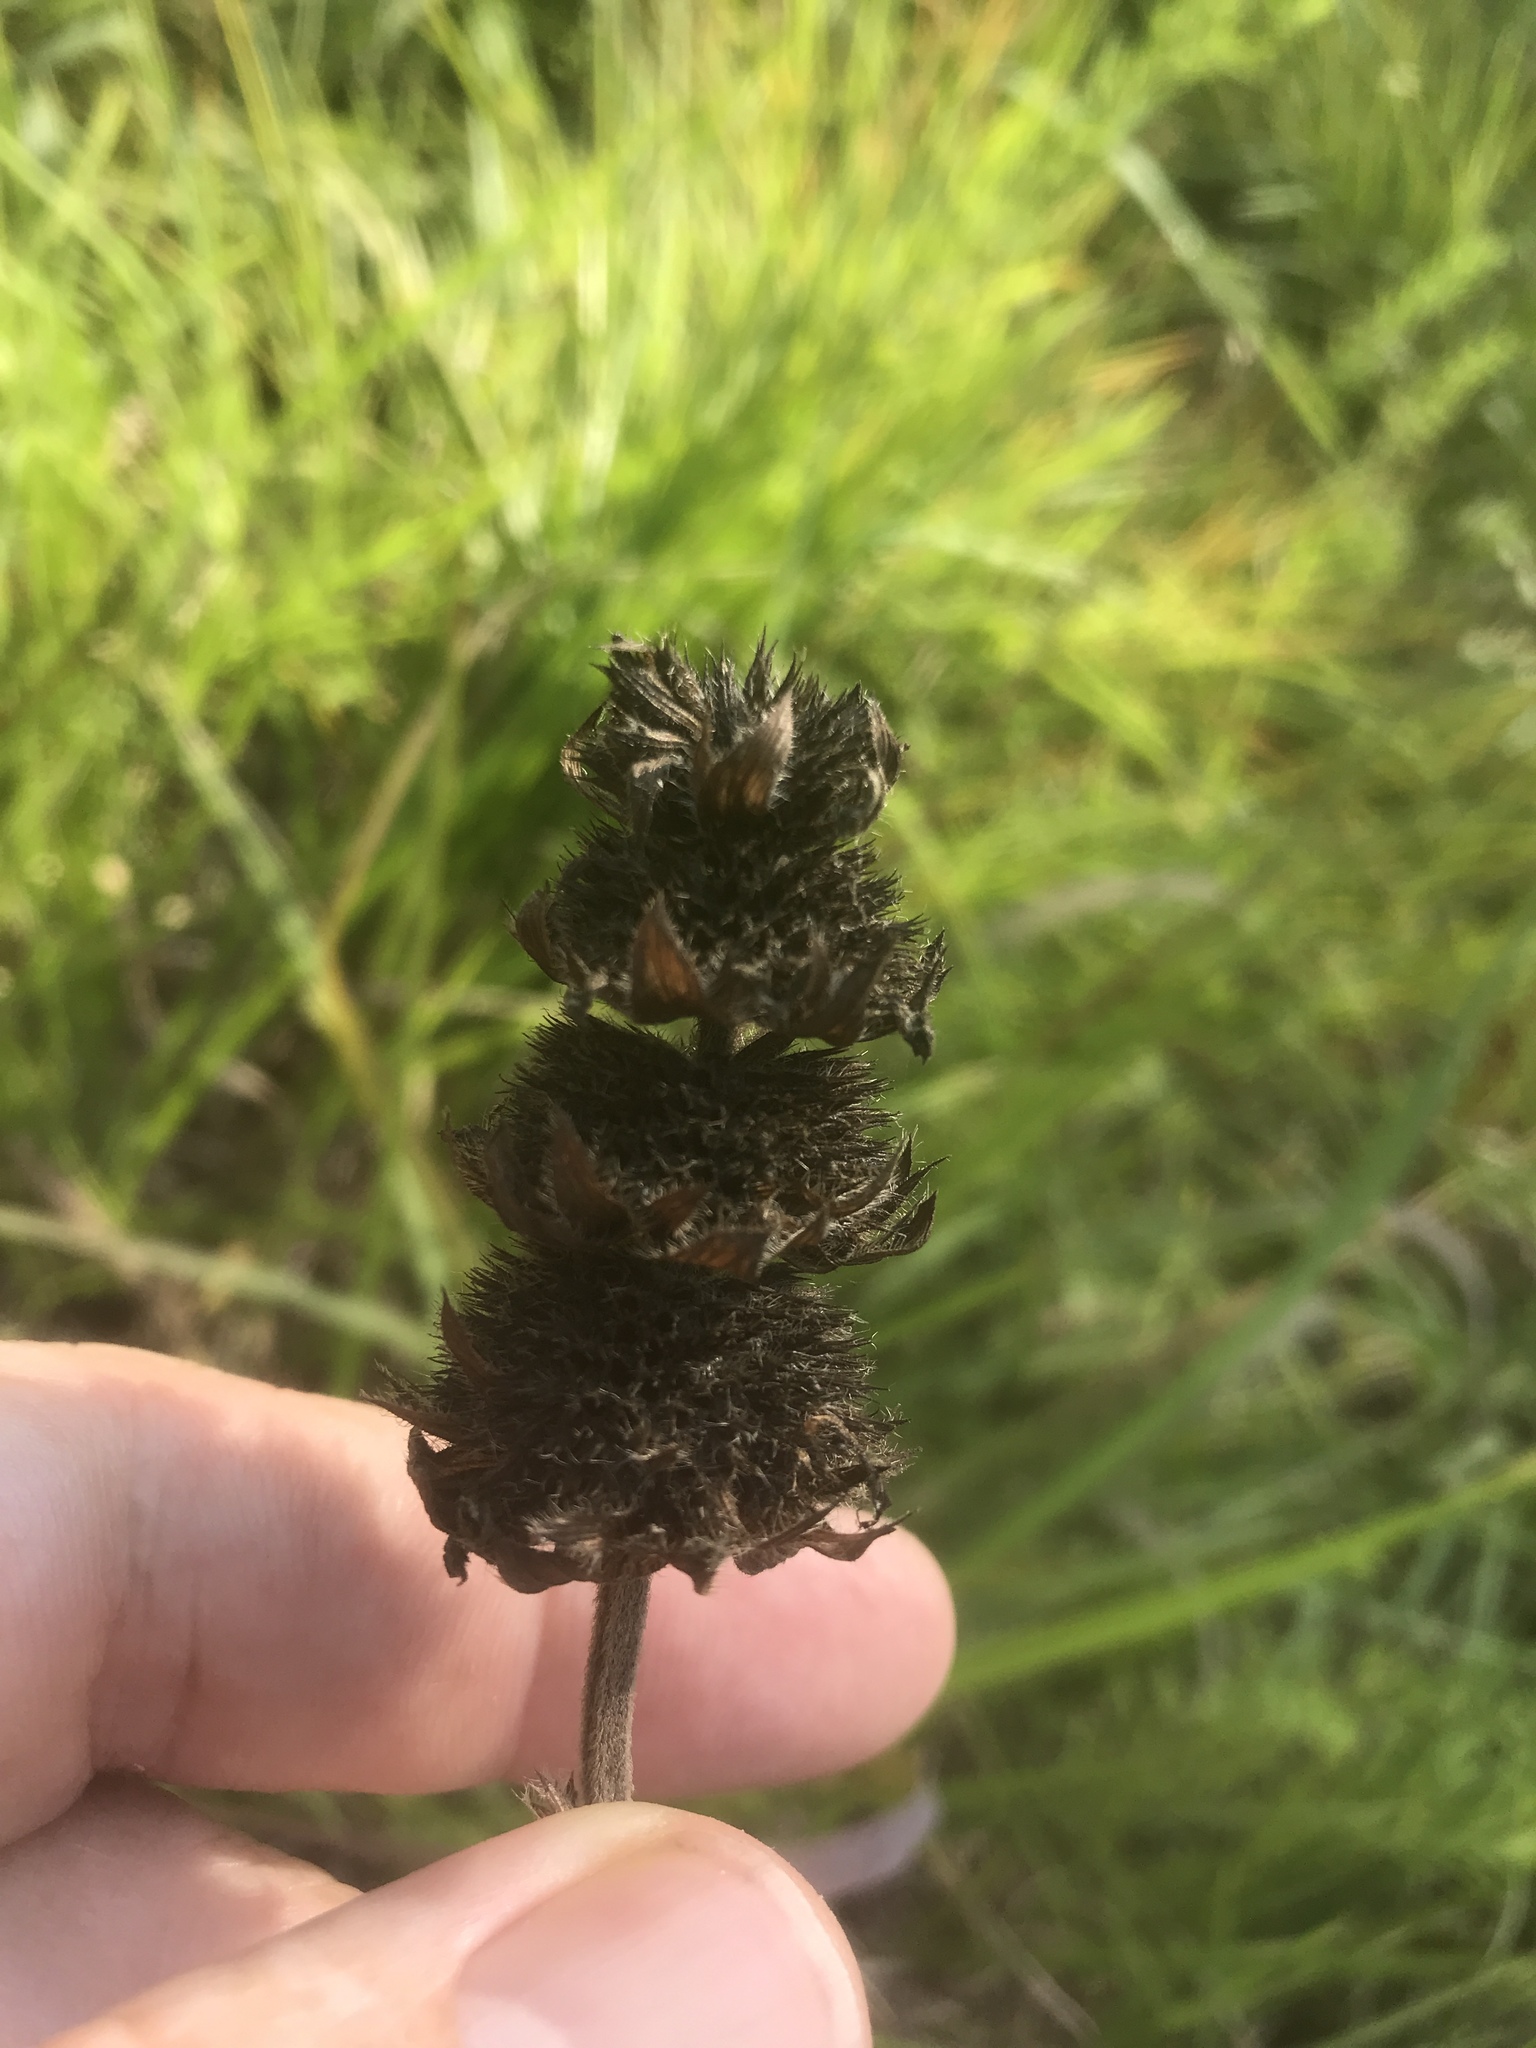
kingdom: Plantae
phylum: Tracheophyta
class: Magnoliopsida
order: Lamiales
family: Lamiaceae
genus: Blephilia
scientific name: Blephilia ciliata
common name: Downy blephilia
